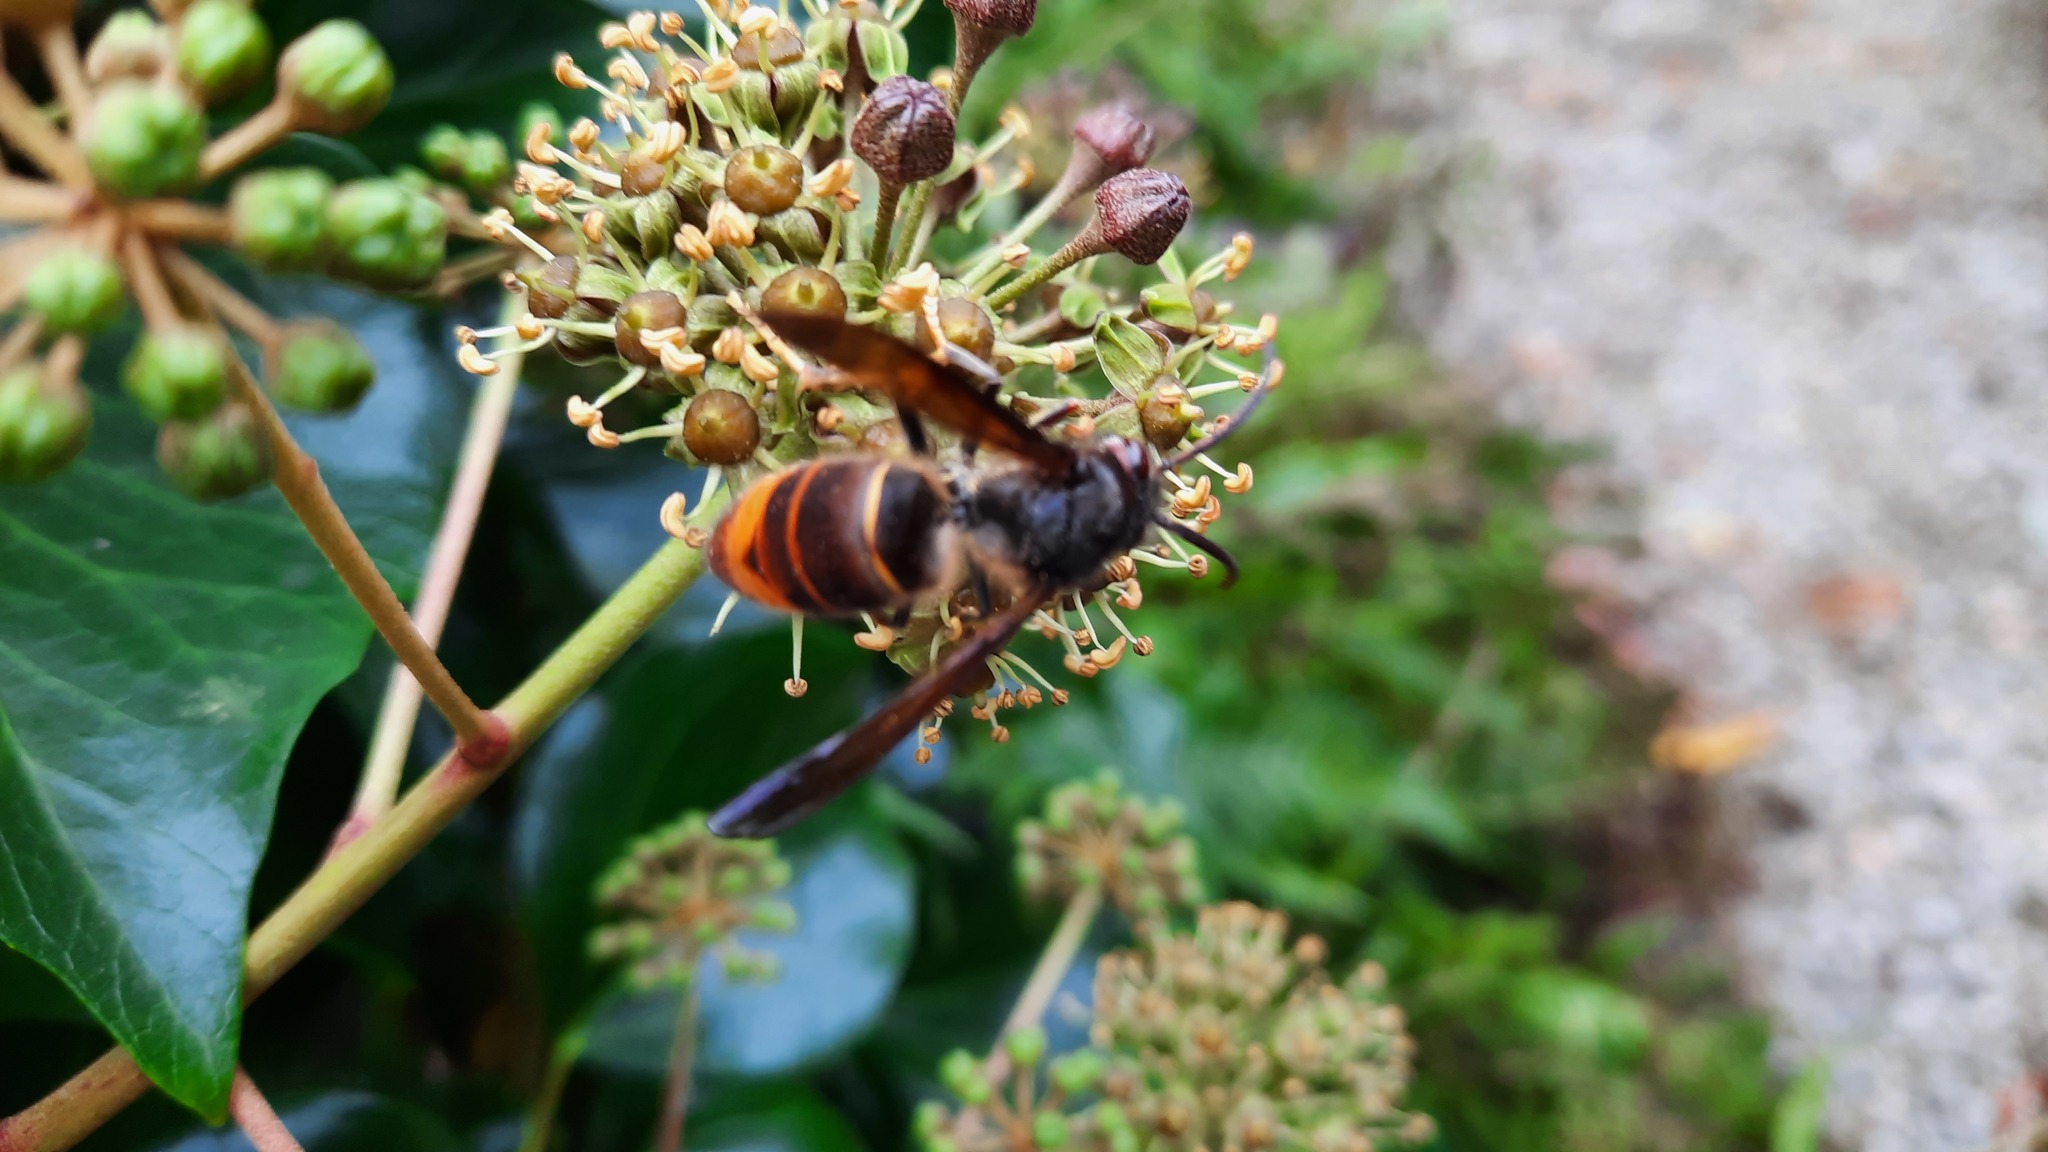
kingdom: Animalia
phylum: Arthropoda
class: Insecta
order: Hymenoptera
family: Vespidae
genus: Vespa
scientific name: Vespa velutina
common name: Asian hornet
